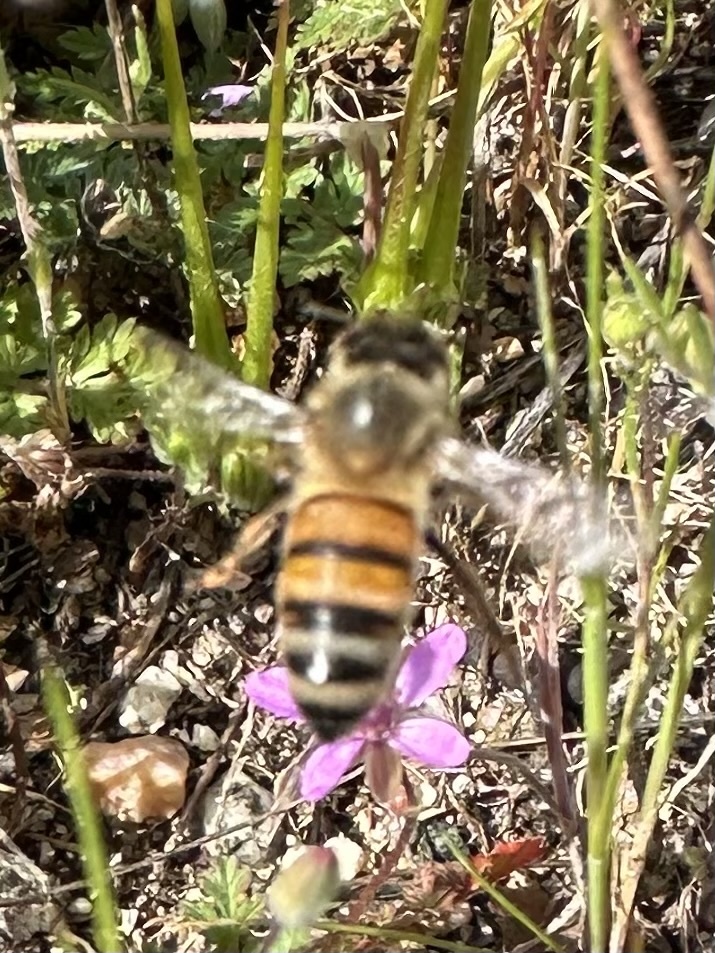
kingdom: Animalia
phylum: Arthropoda
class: Insecta
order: Hymenoptera
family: Apidae
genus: Apis
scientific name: Apis mellifera
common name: Honey bee
